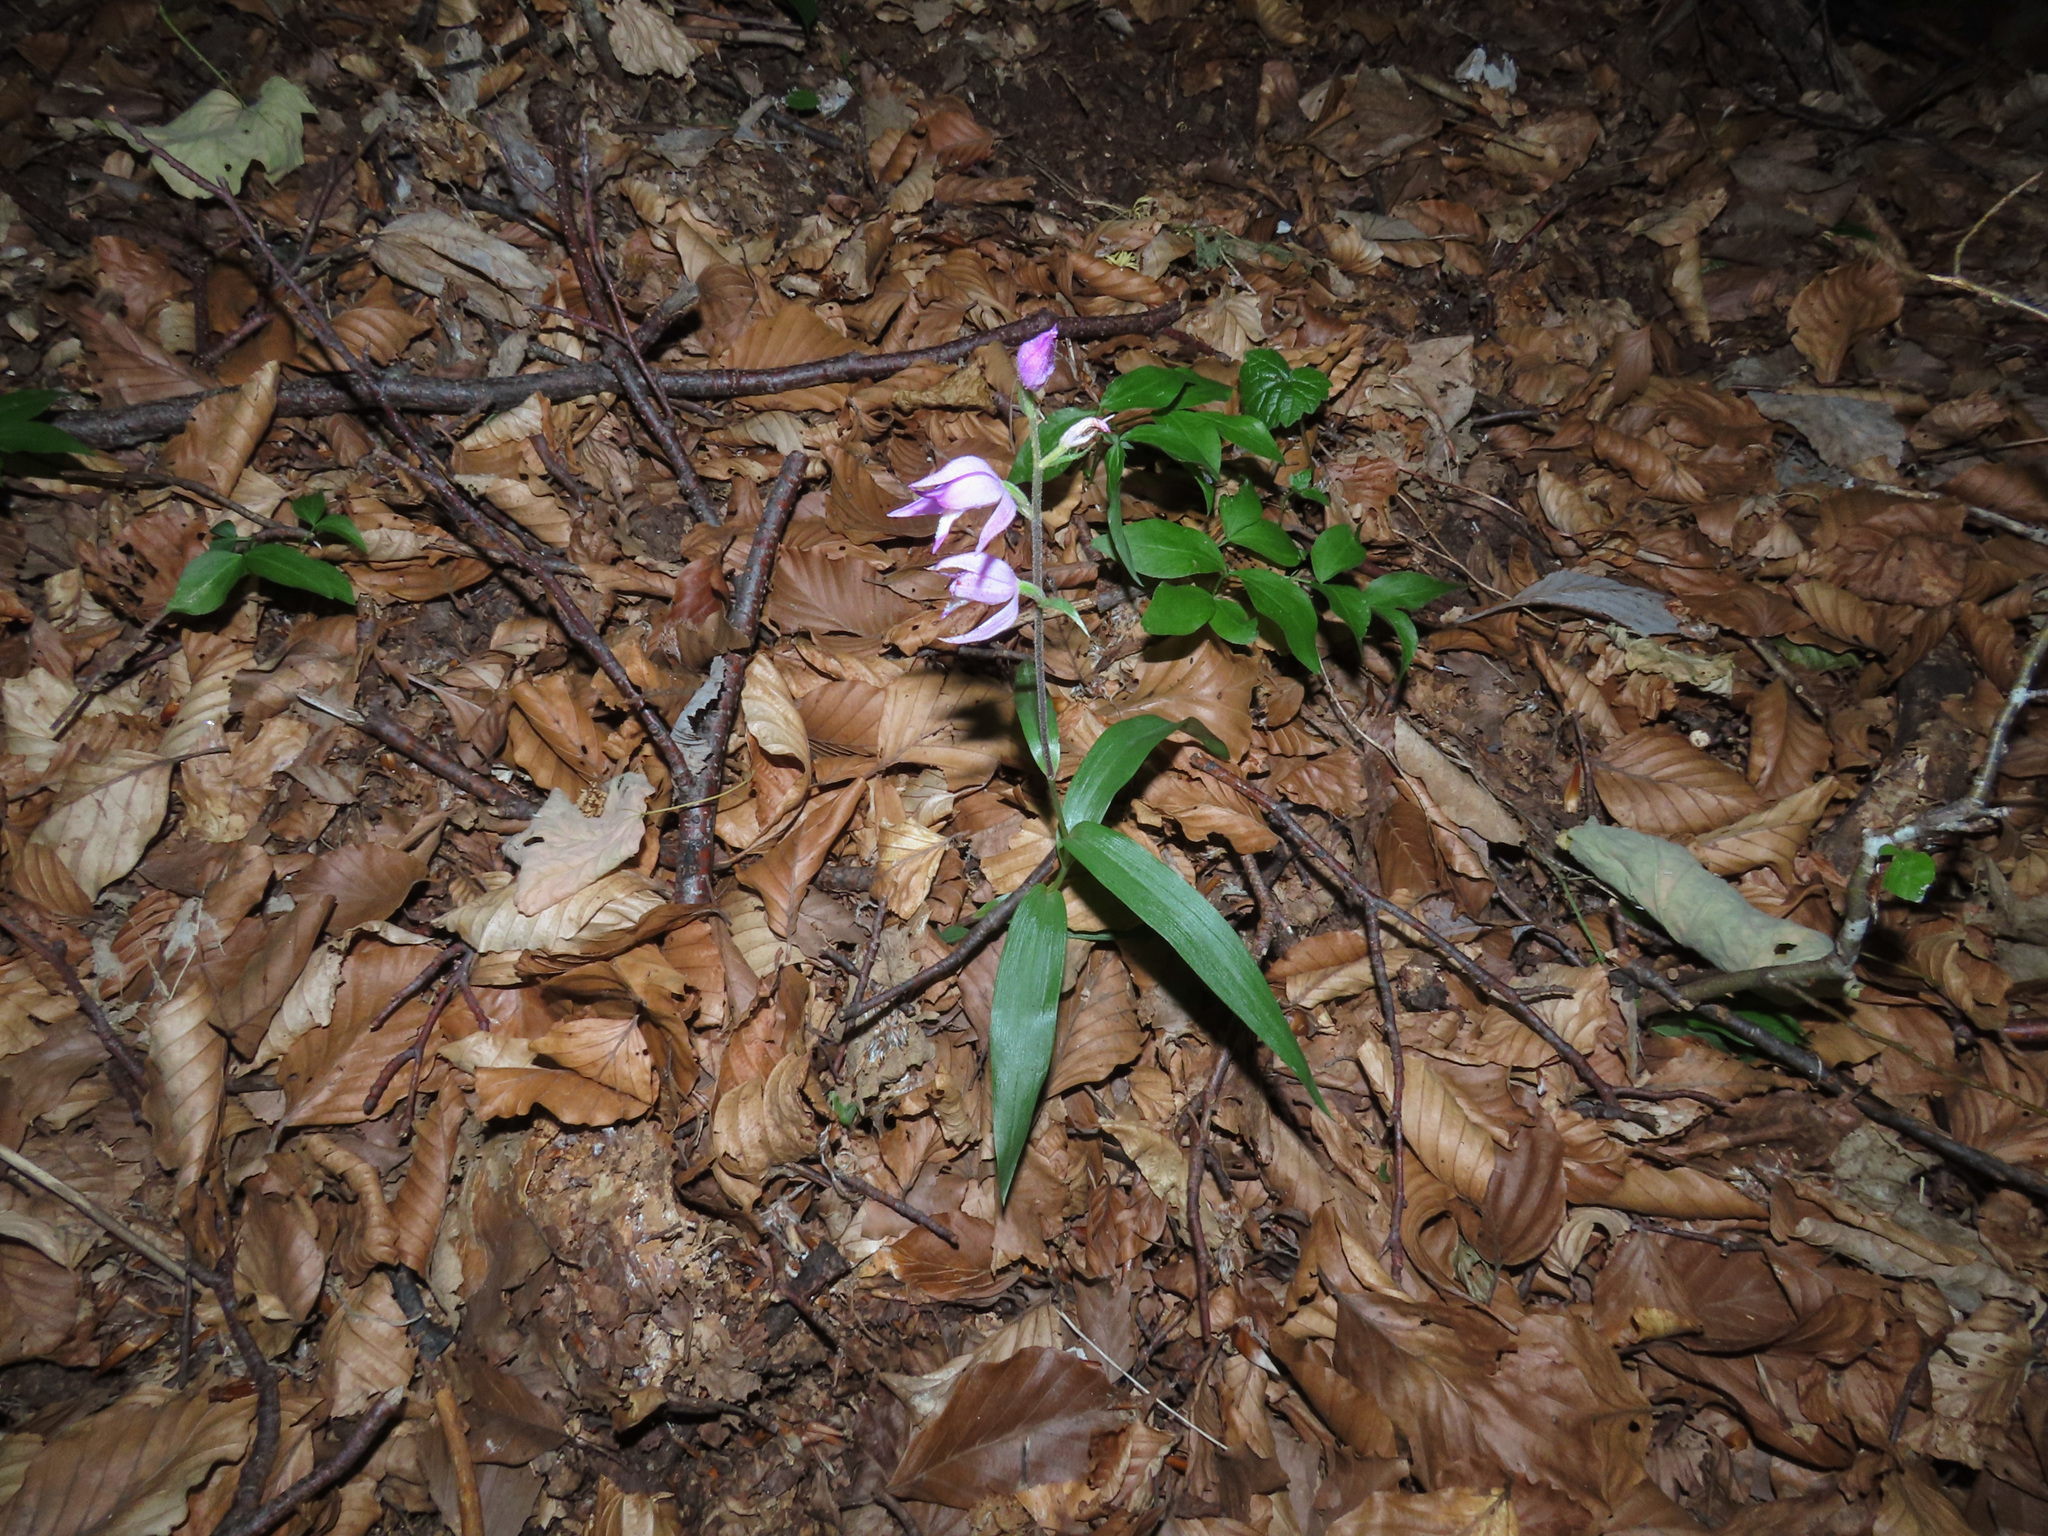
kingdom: Plantae
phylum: Tracheophyta
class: Liliopsida
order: Asparagales
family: Orchidaceae
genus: Cephalanthera
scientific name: Cephalanthera rubra
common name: Red helleborine
